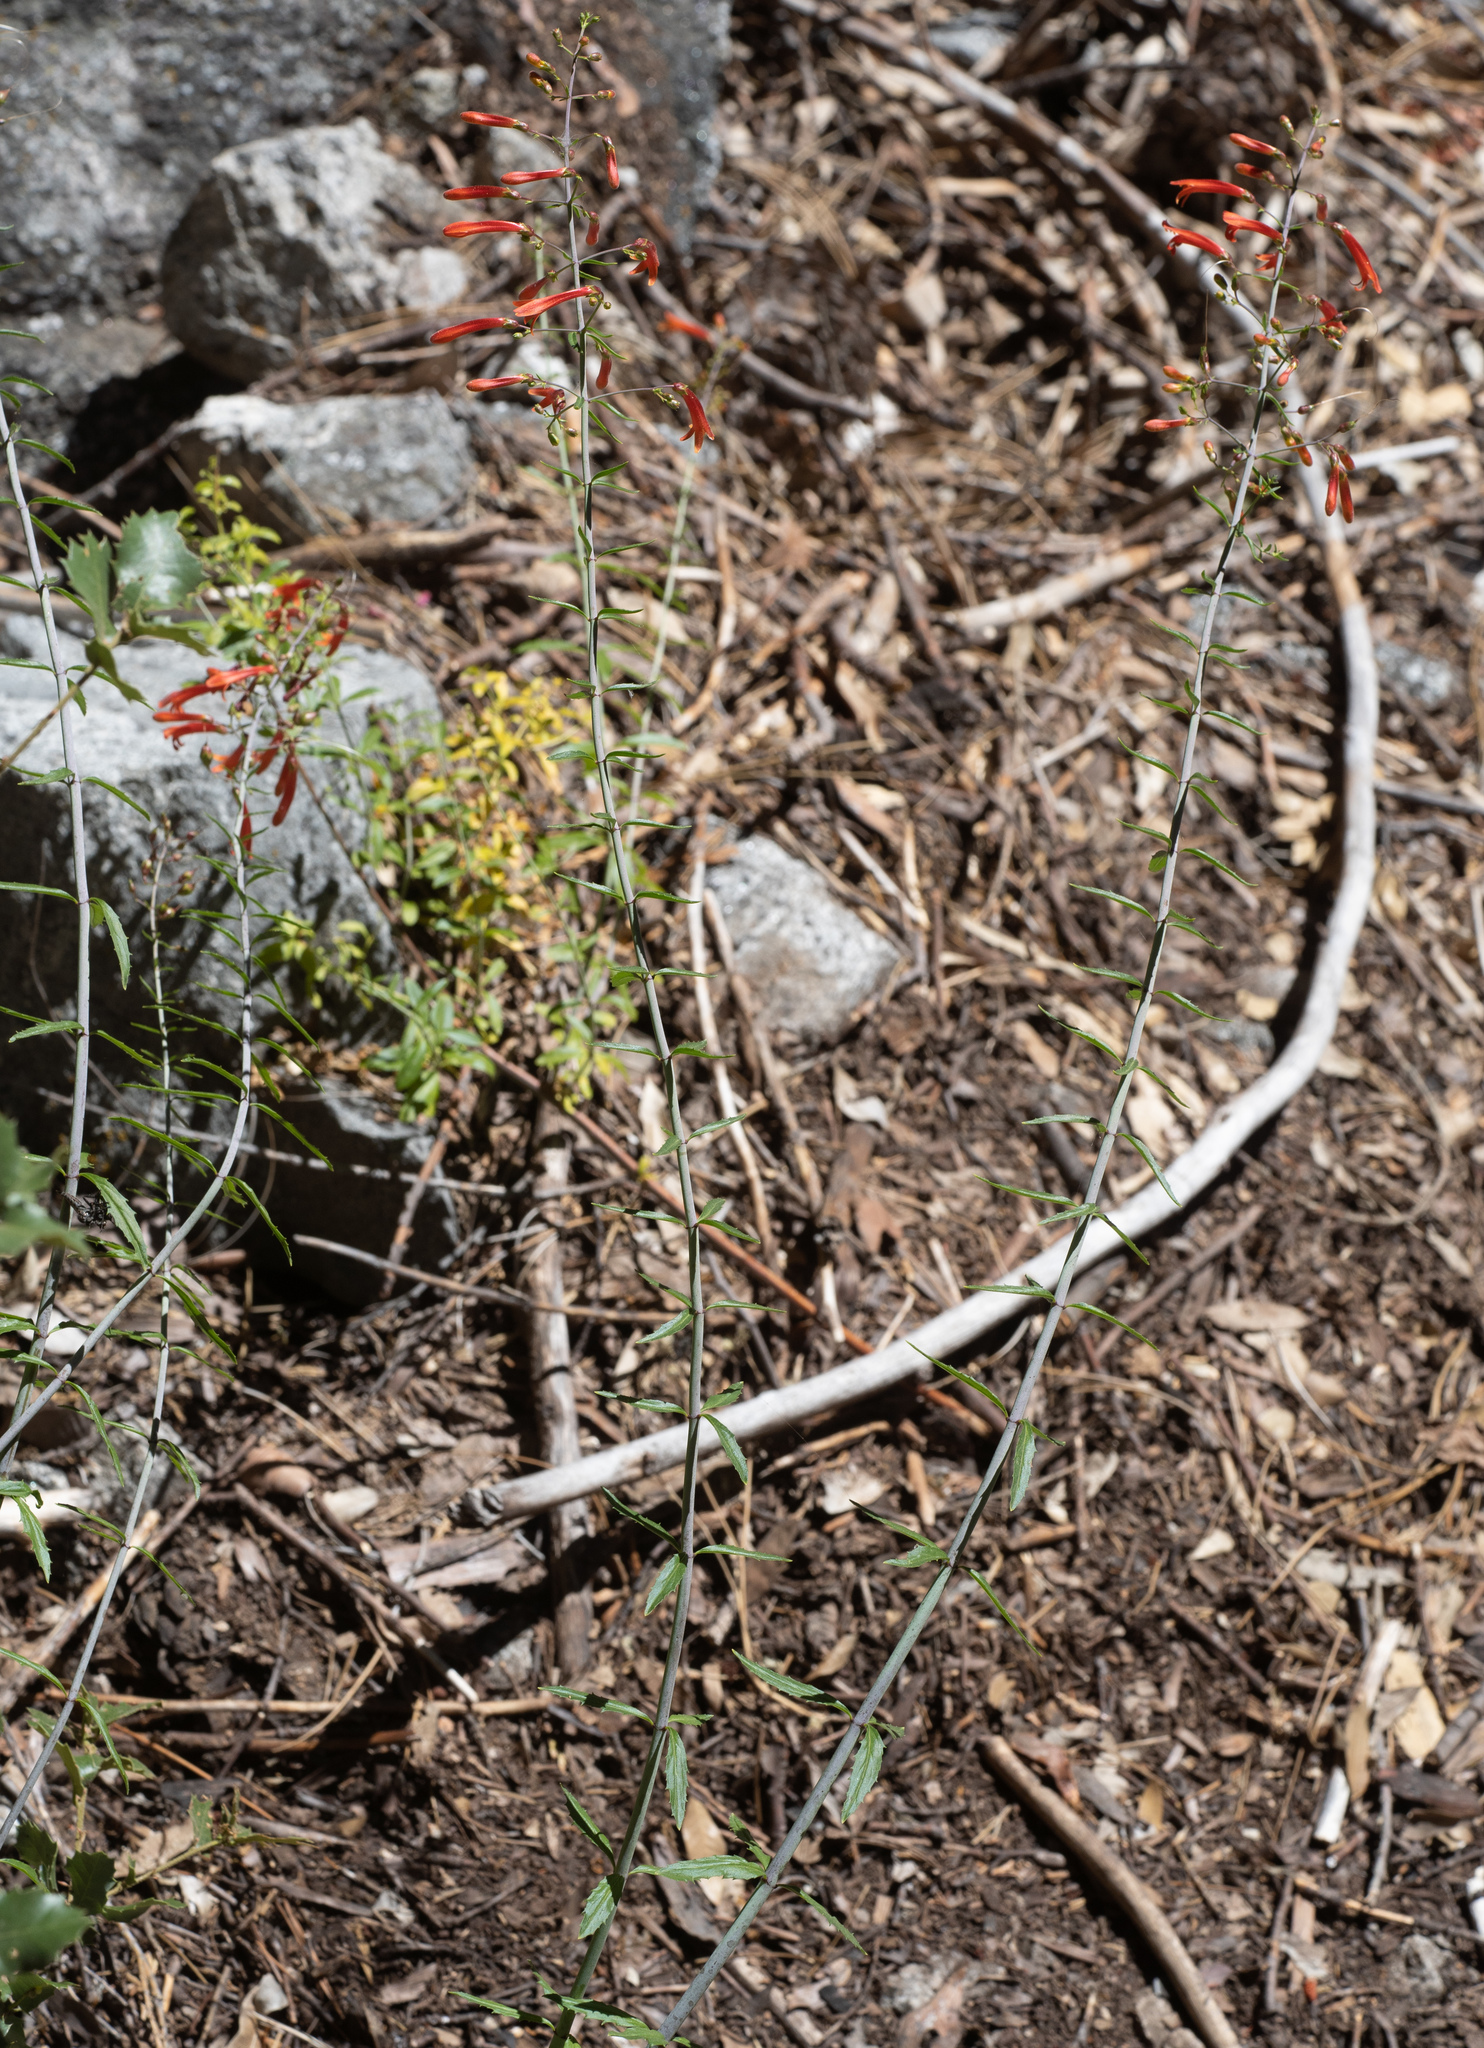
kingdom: Plantae
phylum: Tracheophyta
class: Magnoliopsida
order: Lamiales
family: Plantaginaceae
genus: Keckiella
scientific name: Keckiella ternata
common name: Scarlet keckiella
